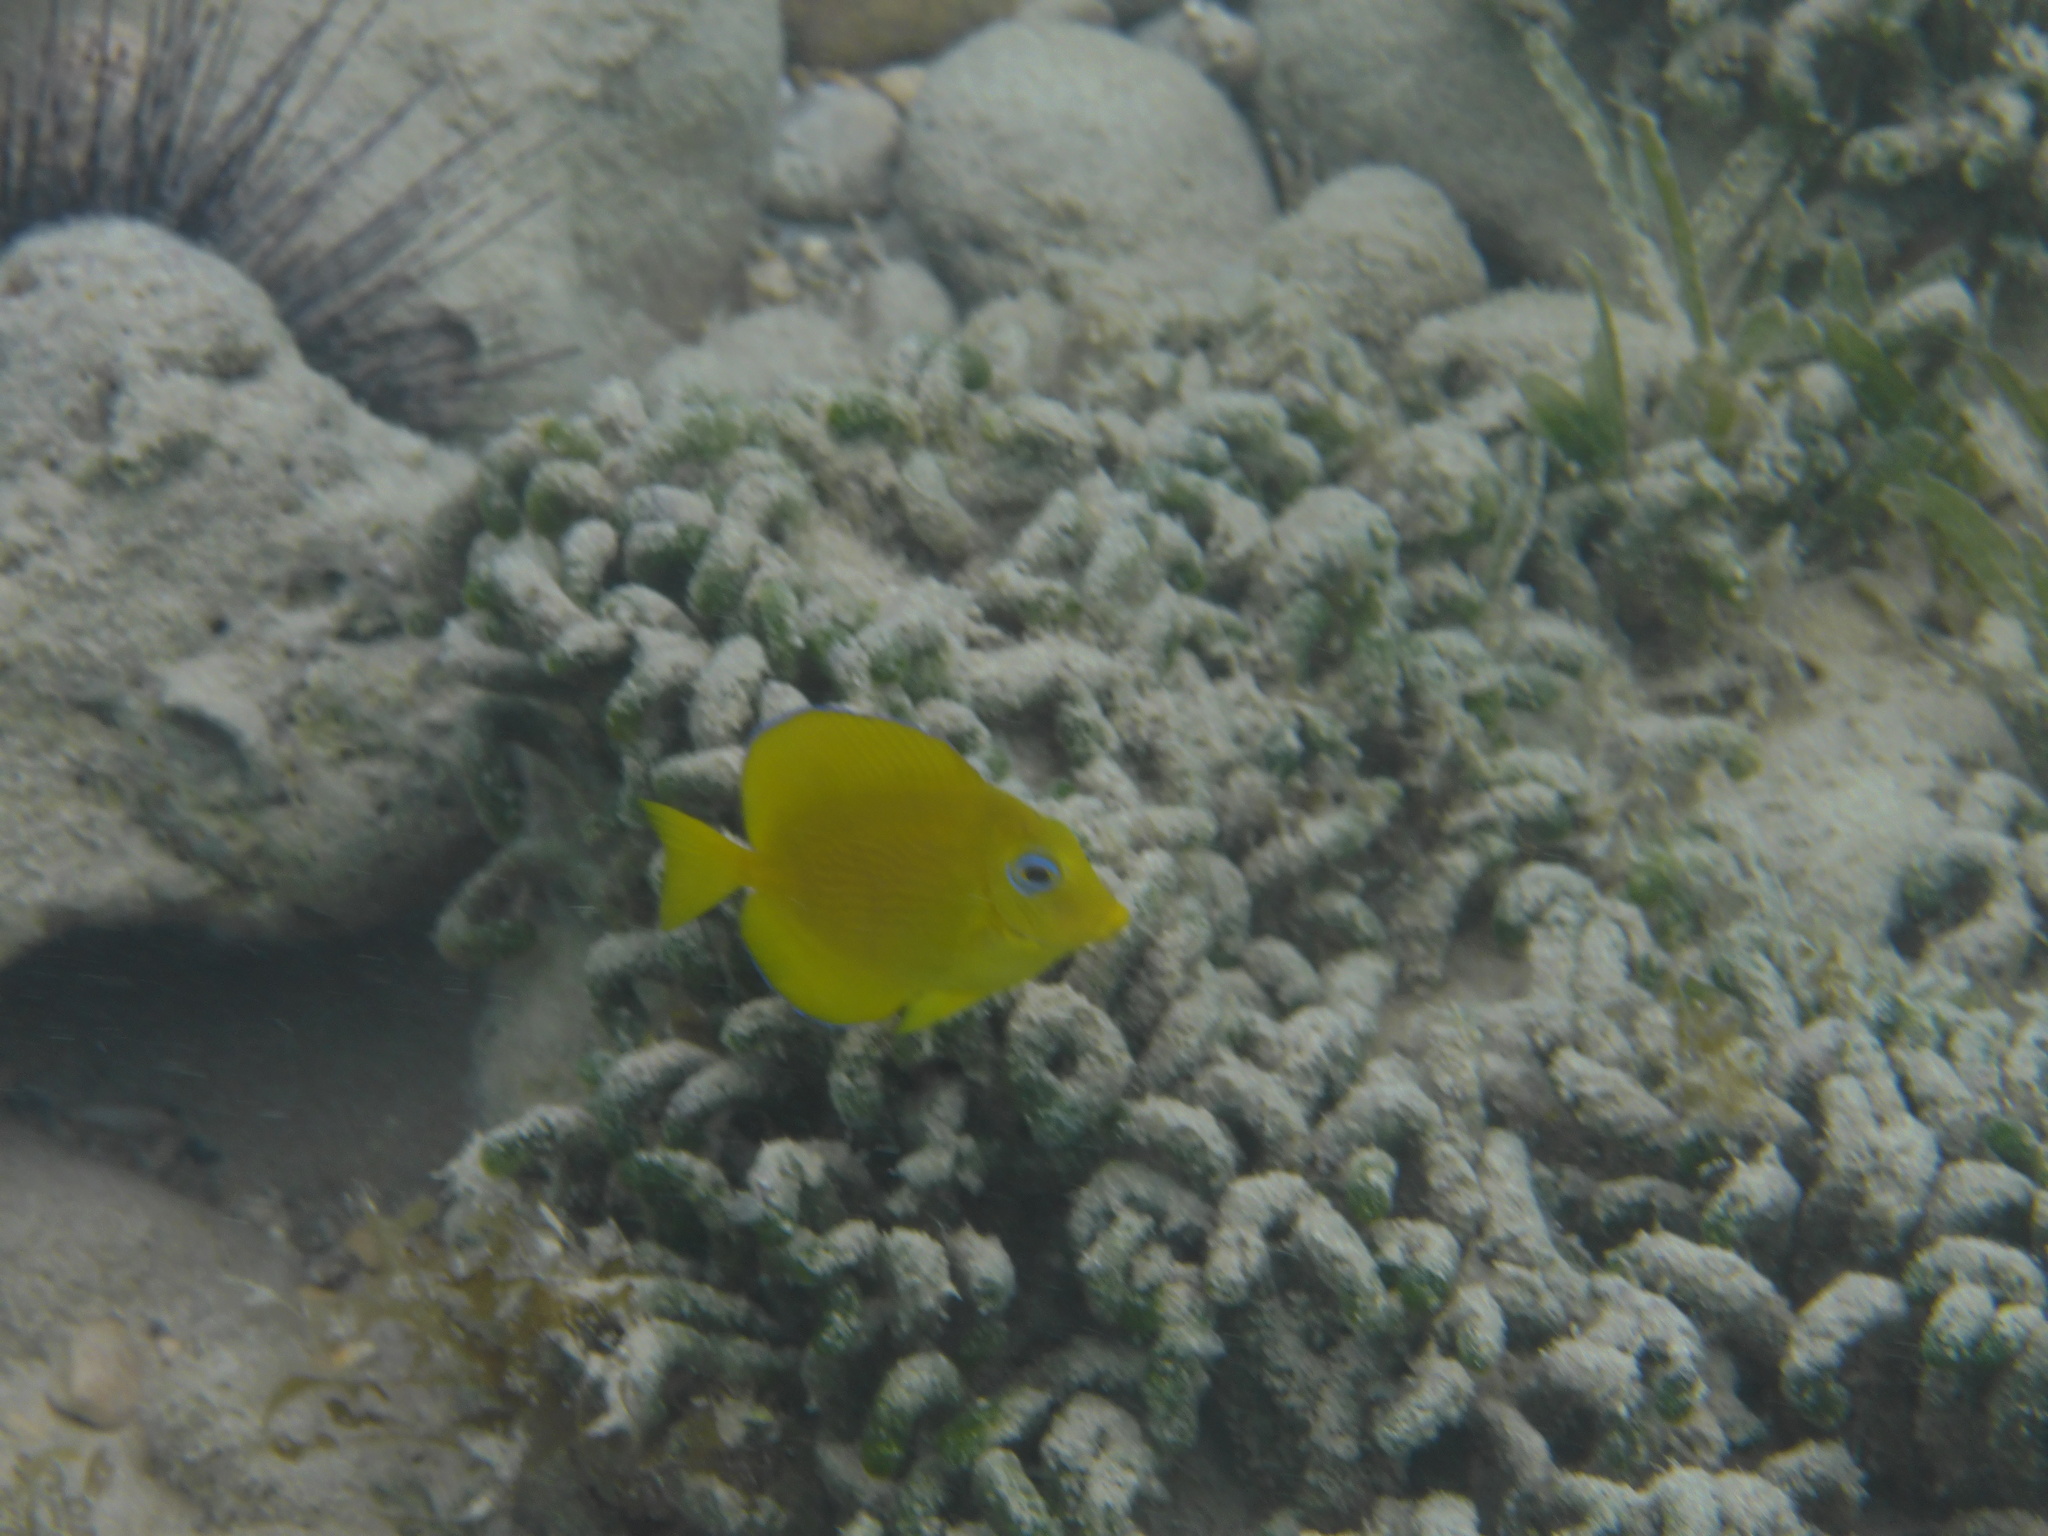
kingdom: Animalia
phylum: Chordata
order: Perciformes
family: Acanthuridae
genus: Acanthurus
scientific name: Acanthurus coeruleus
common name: Blue tang
